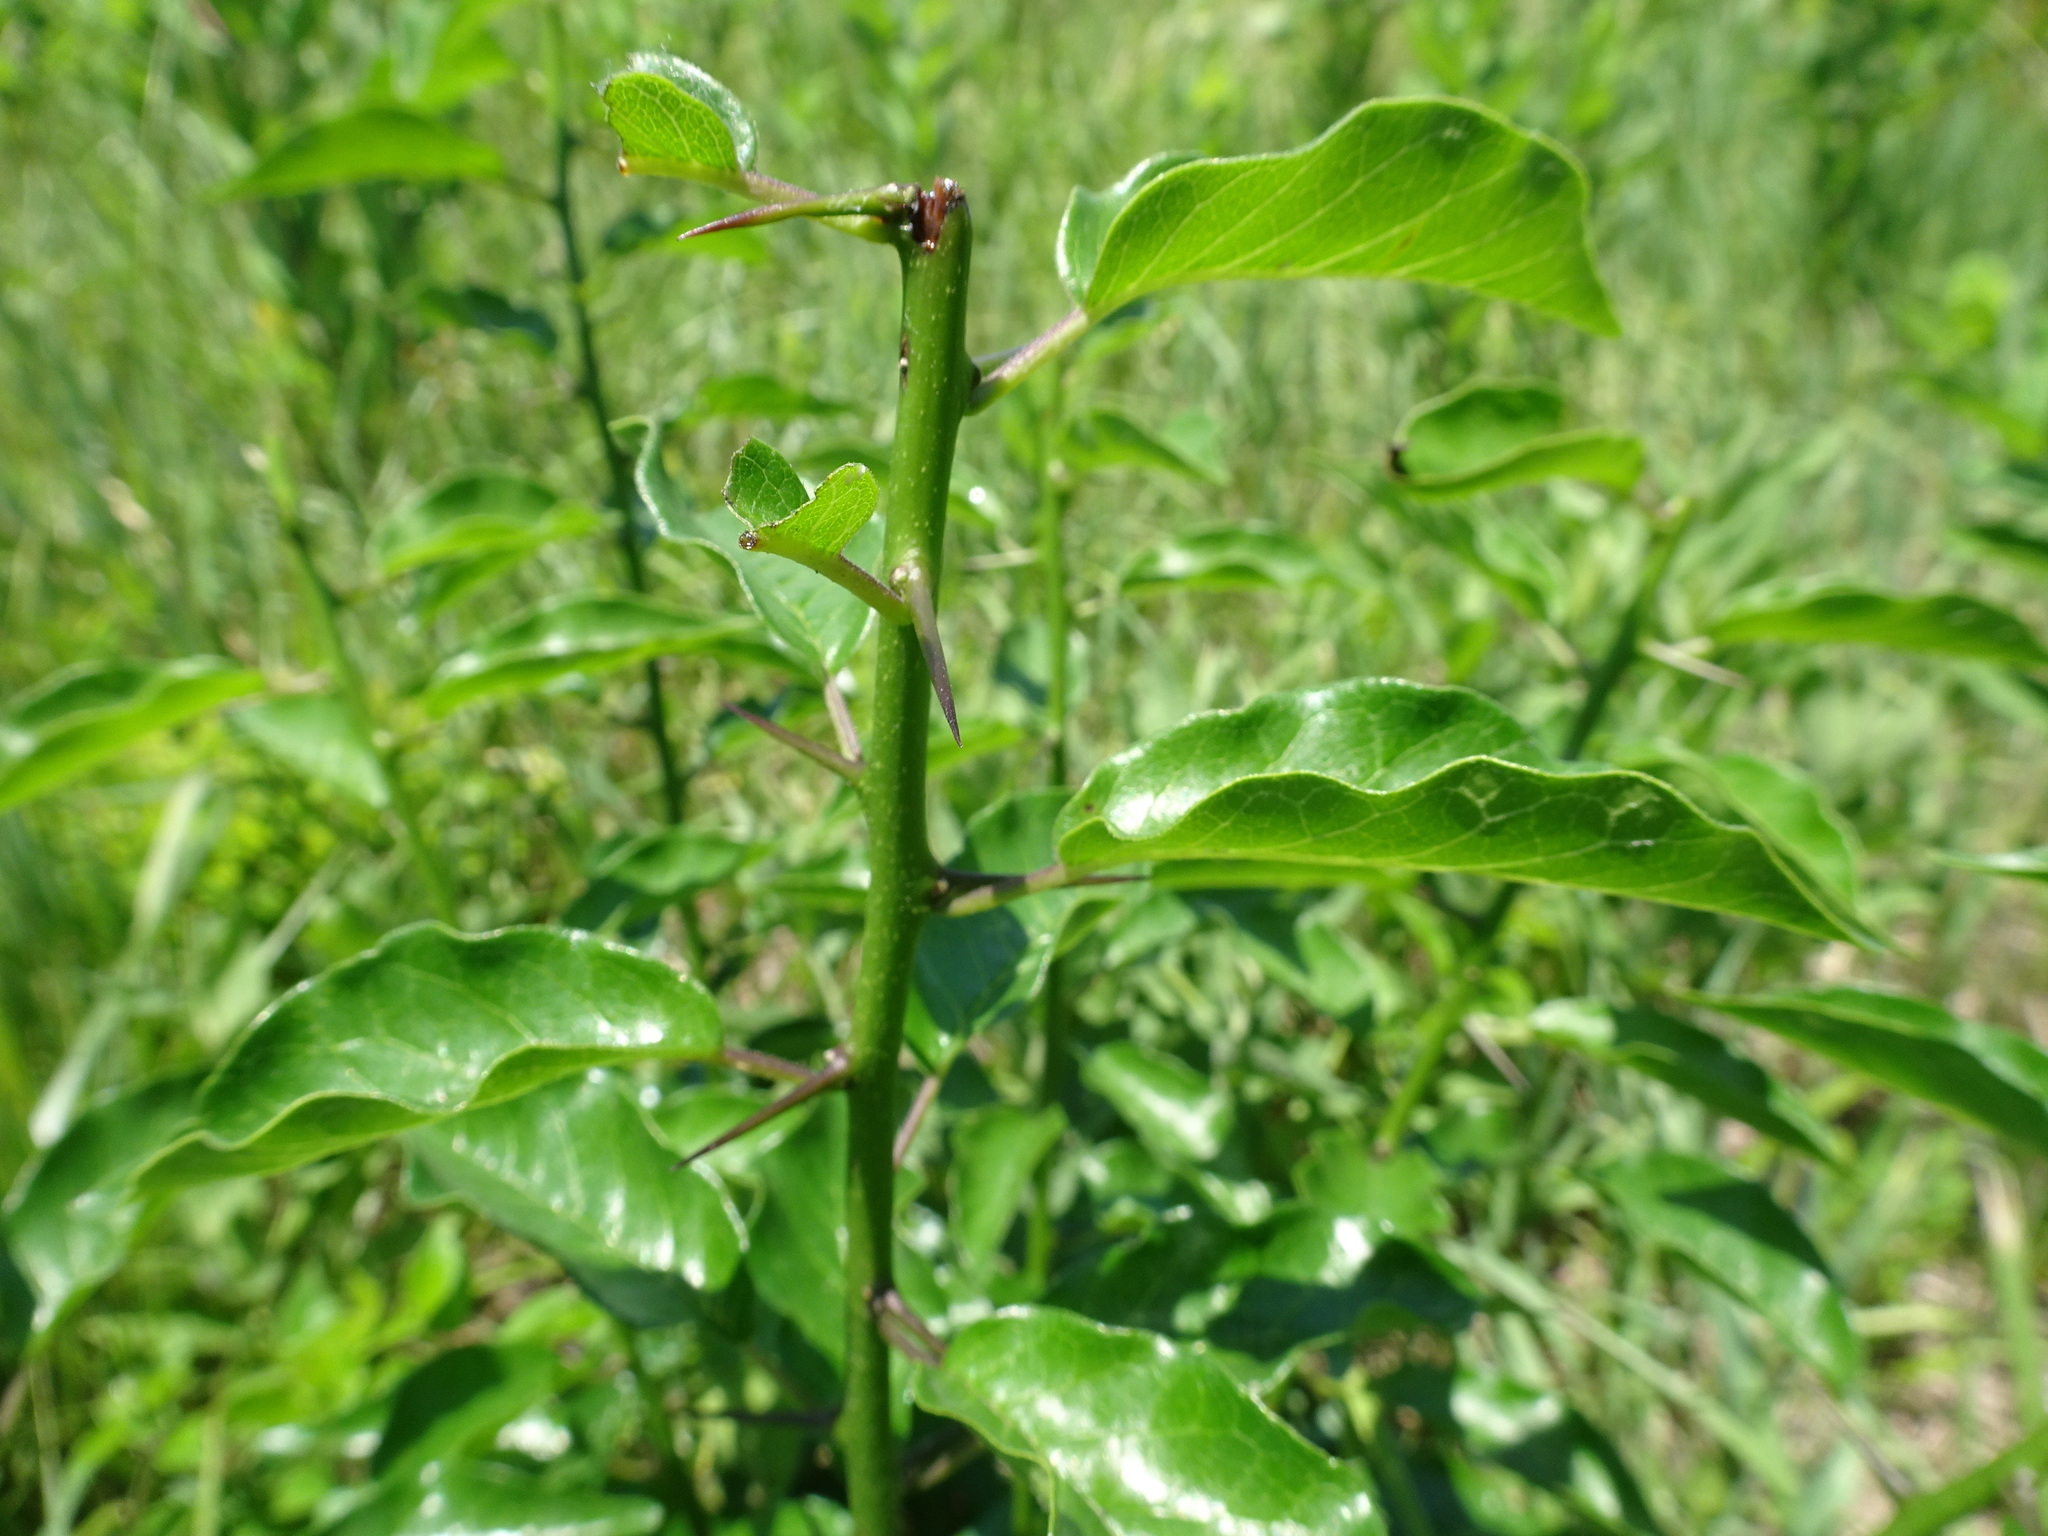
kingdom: Plantae
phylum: Tracheophyta
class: Magnoliopsida
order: Rosales
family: Moraceae
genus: Maclura
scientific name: Maclura pomifera
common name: Osage-orange
